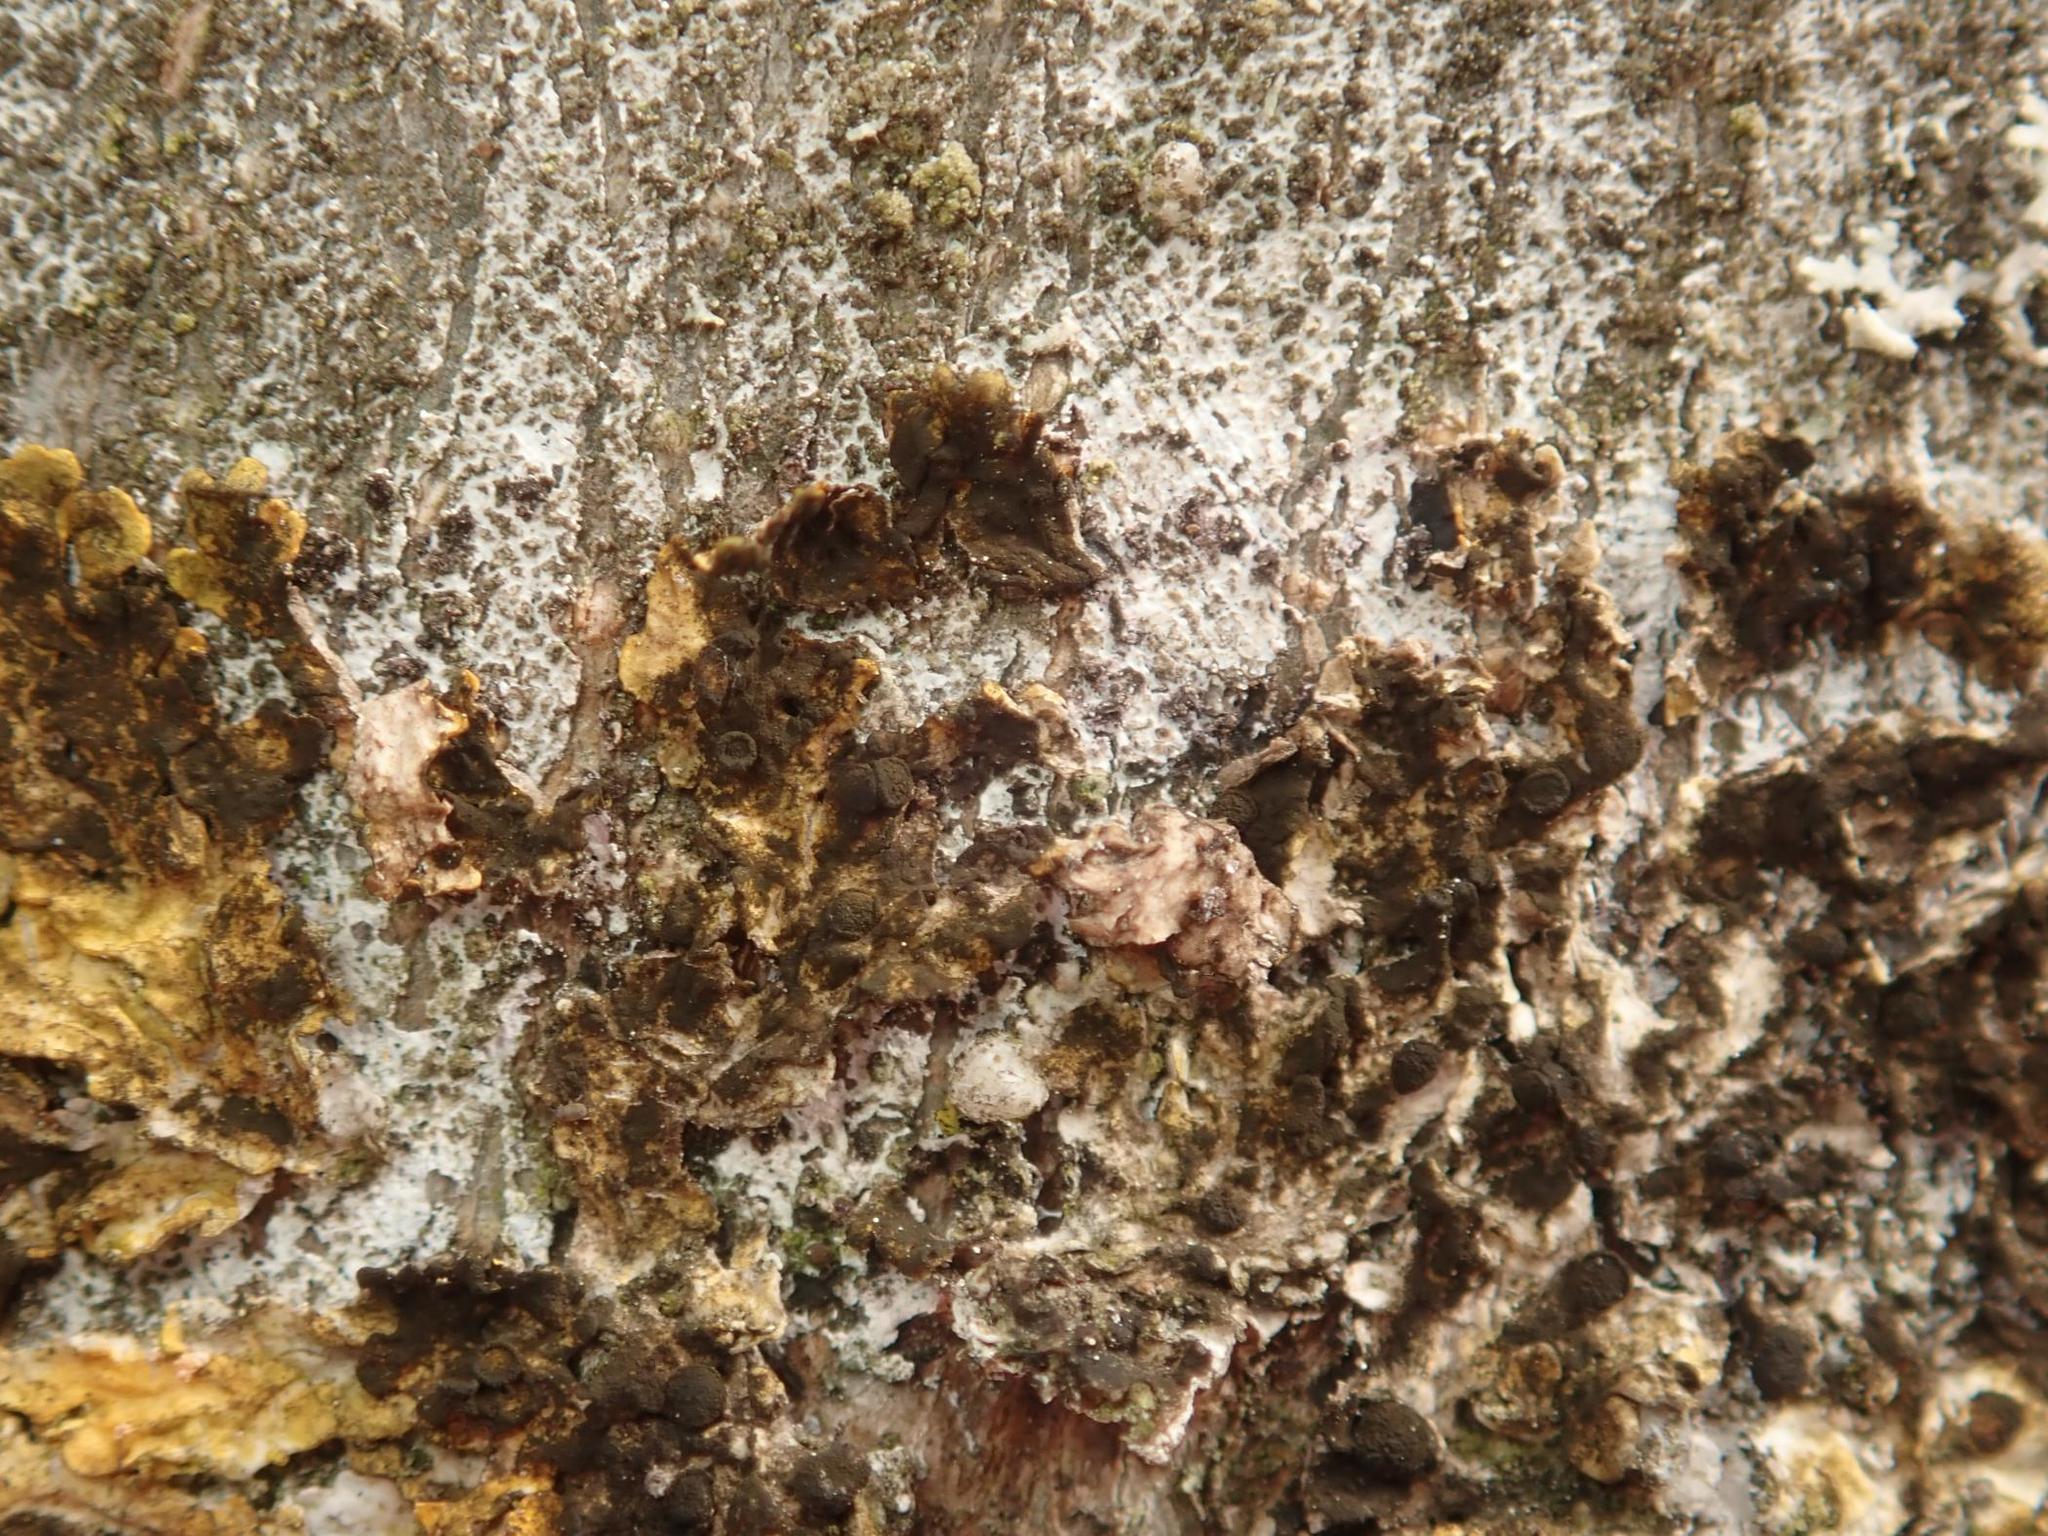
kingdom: Fungi
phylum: Ascomycota
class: Dothideomycetes
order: Mycosphaerellales
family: Teratosphaeriaceae
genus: Xanthoriicola
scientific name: Xanthoriicola physciae
